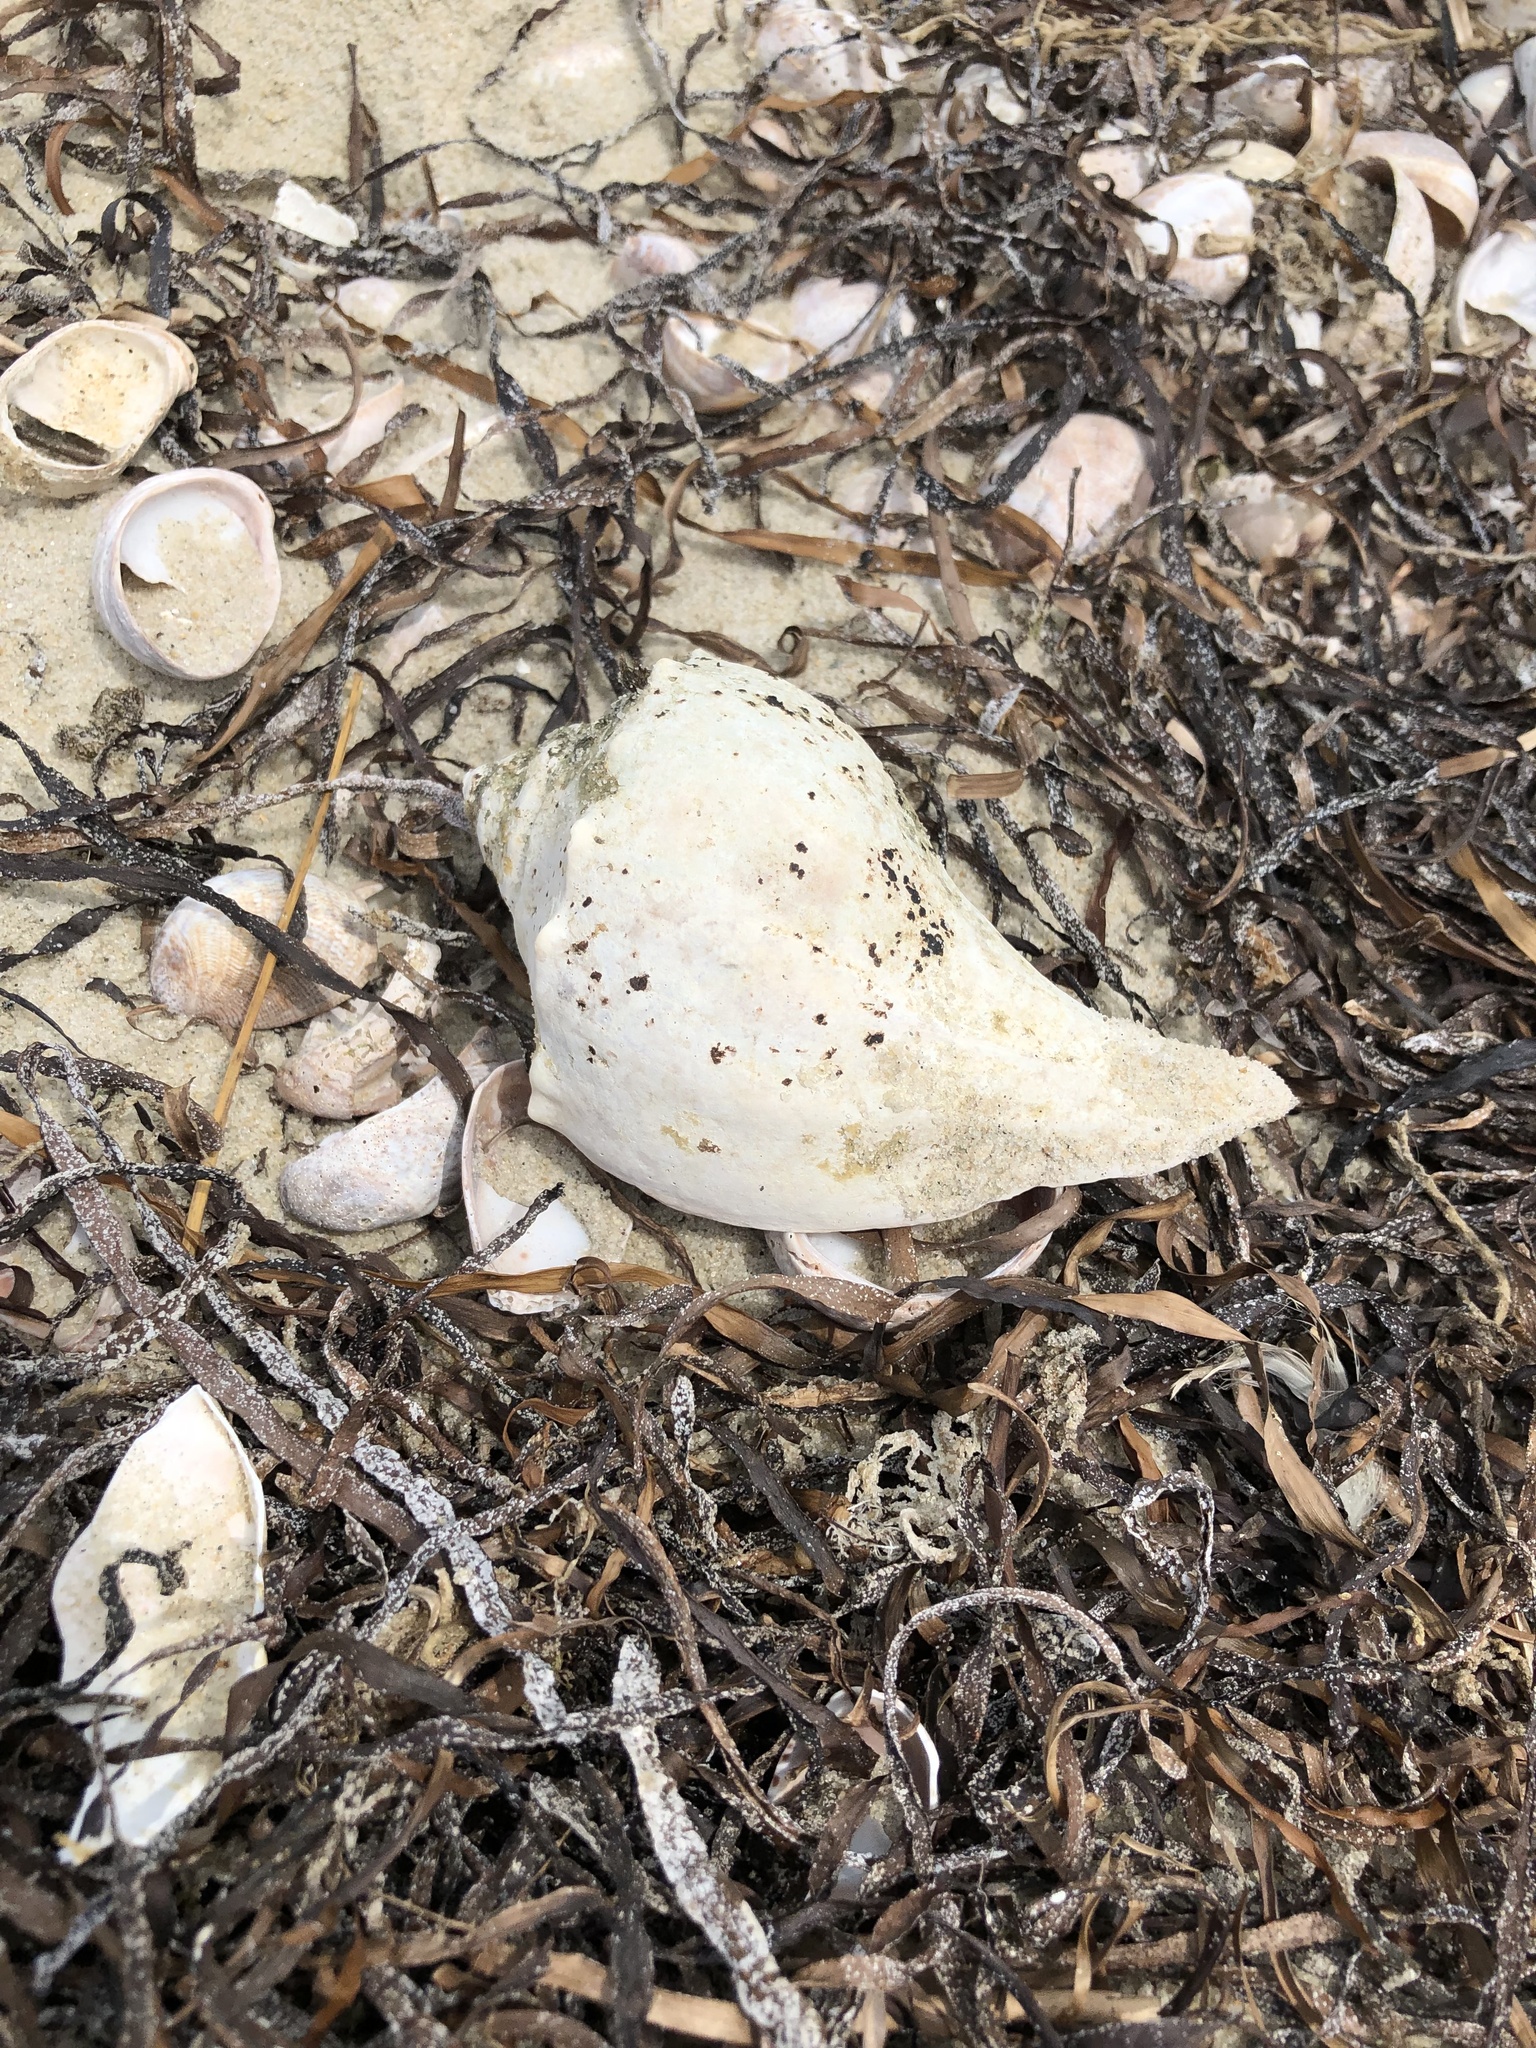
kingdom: Animalia
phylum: Mollusca
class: Gastropoda
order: Neogastropoda
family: Busyconidae
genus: Busycon
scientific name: Busycon carica
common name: Knobbed whelk
